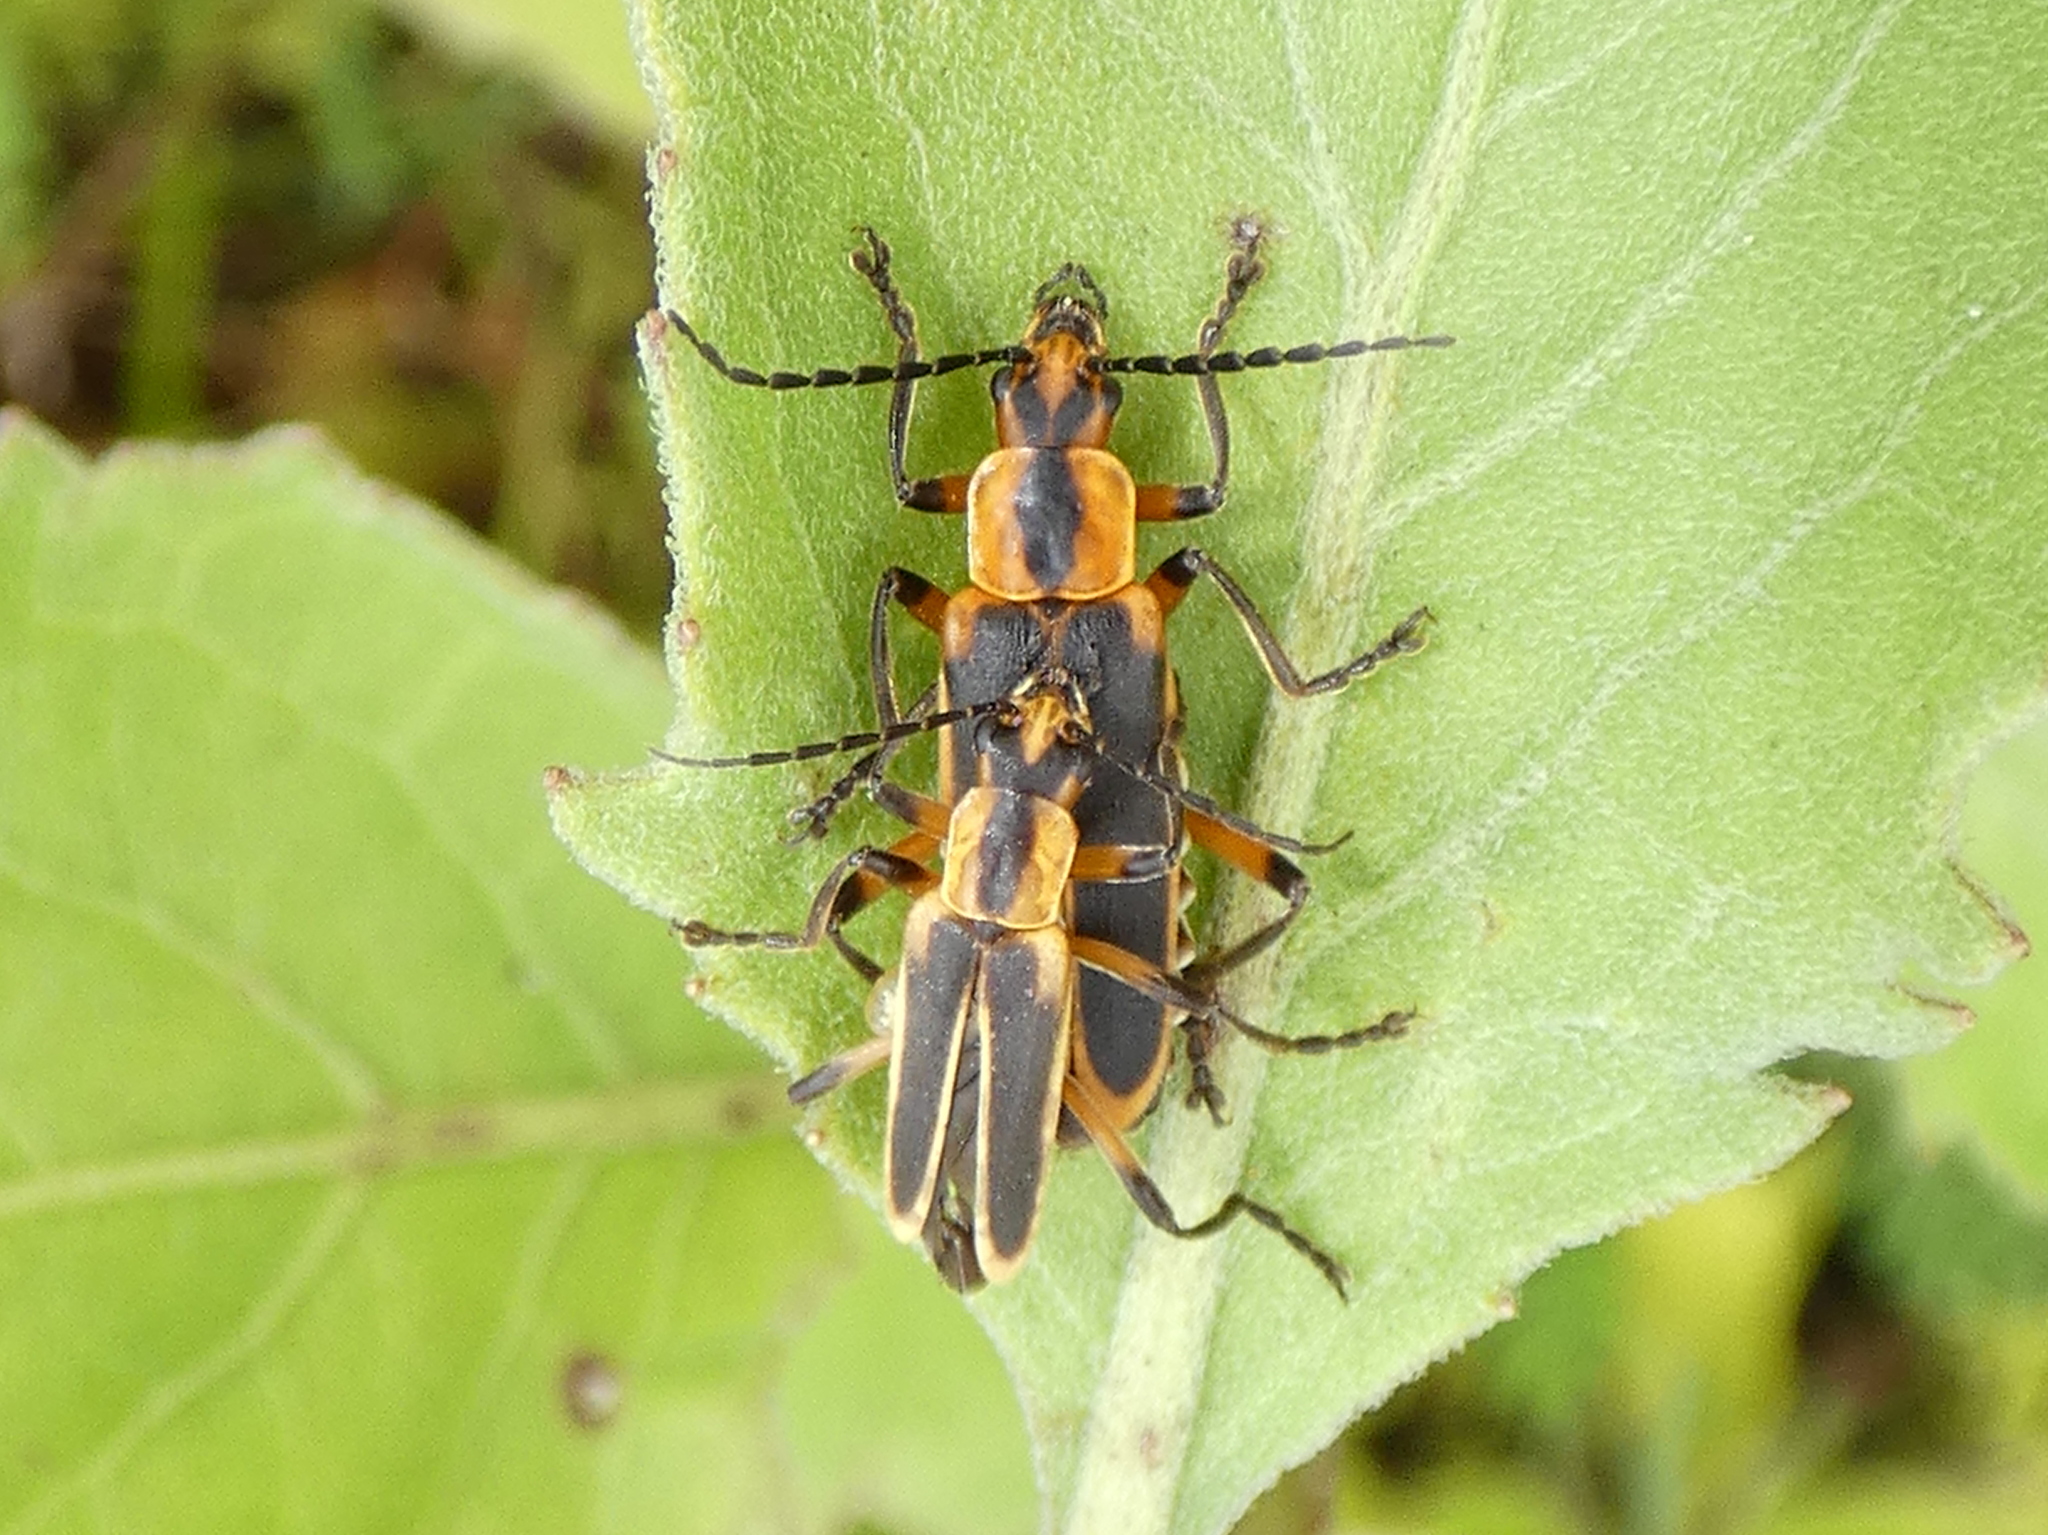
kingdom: Animalia
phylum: Arthropoda
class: Insecta
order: Coleoptera
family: Cantharidae
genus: Chauliognathus
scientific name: Chauliognathus marginatus
